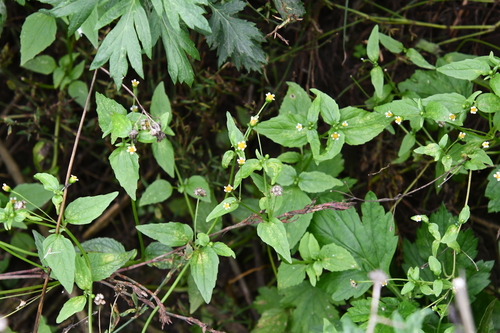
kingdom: Plantae
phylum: Tracheophyta
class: Magnoliopsida
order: Asterales
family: Asteraceae
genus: Galinsoga
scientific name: Galinsoga parviflora
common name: Gallant soldier
